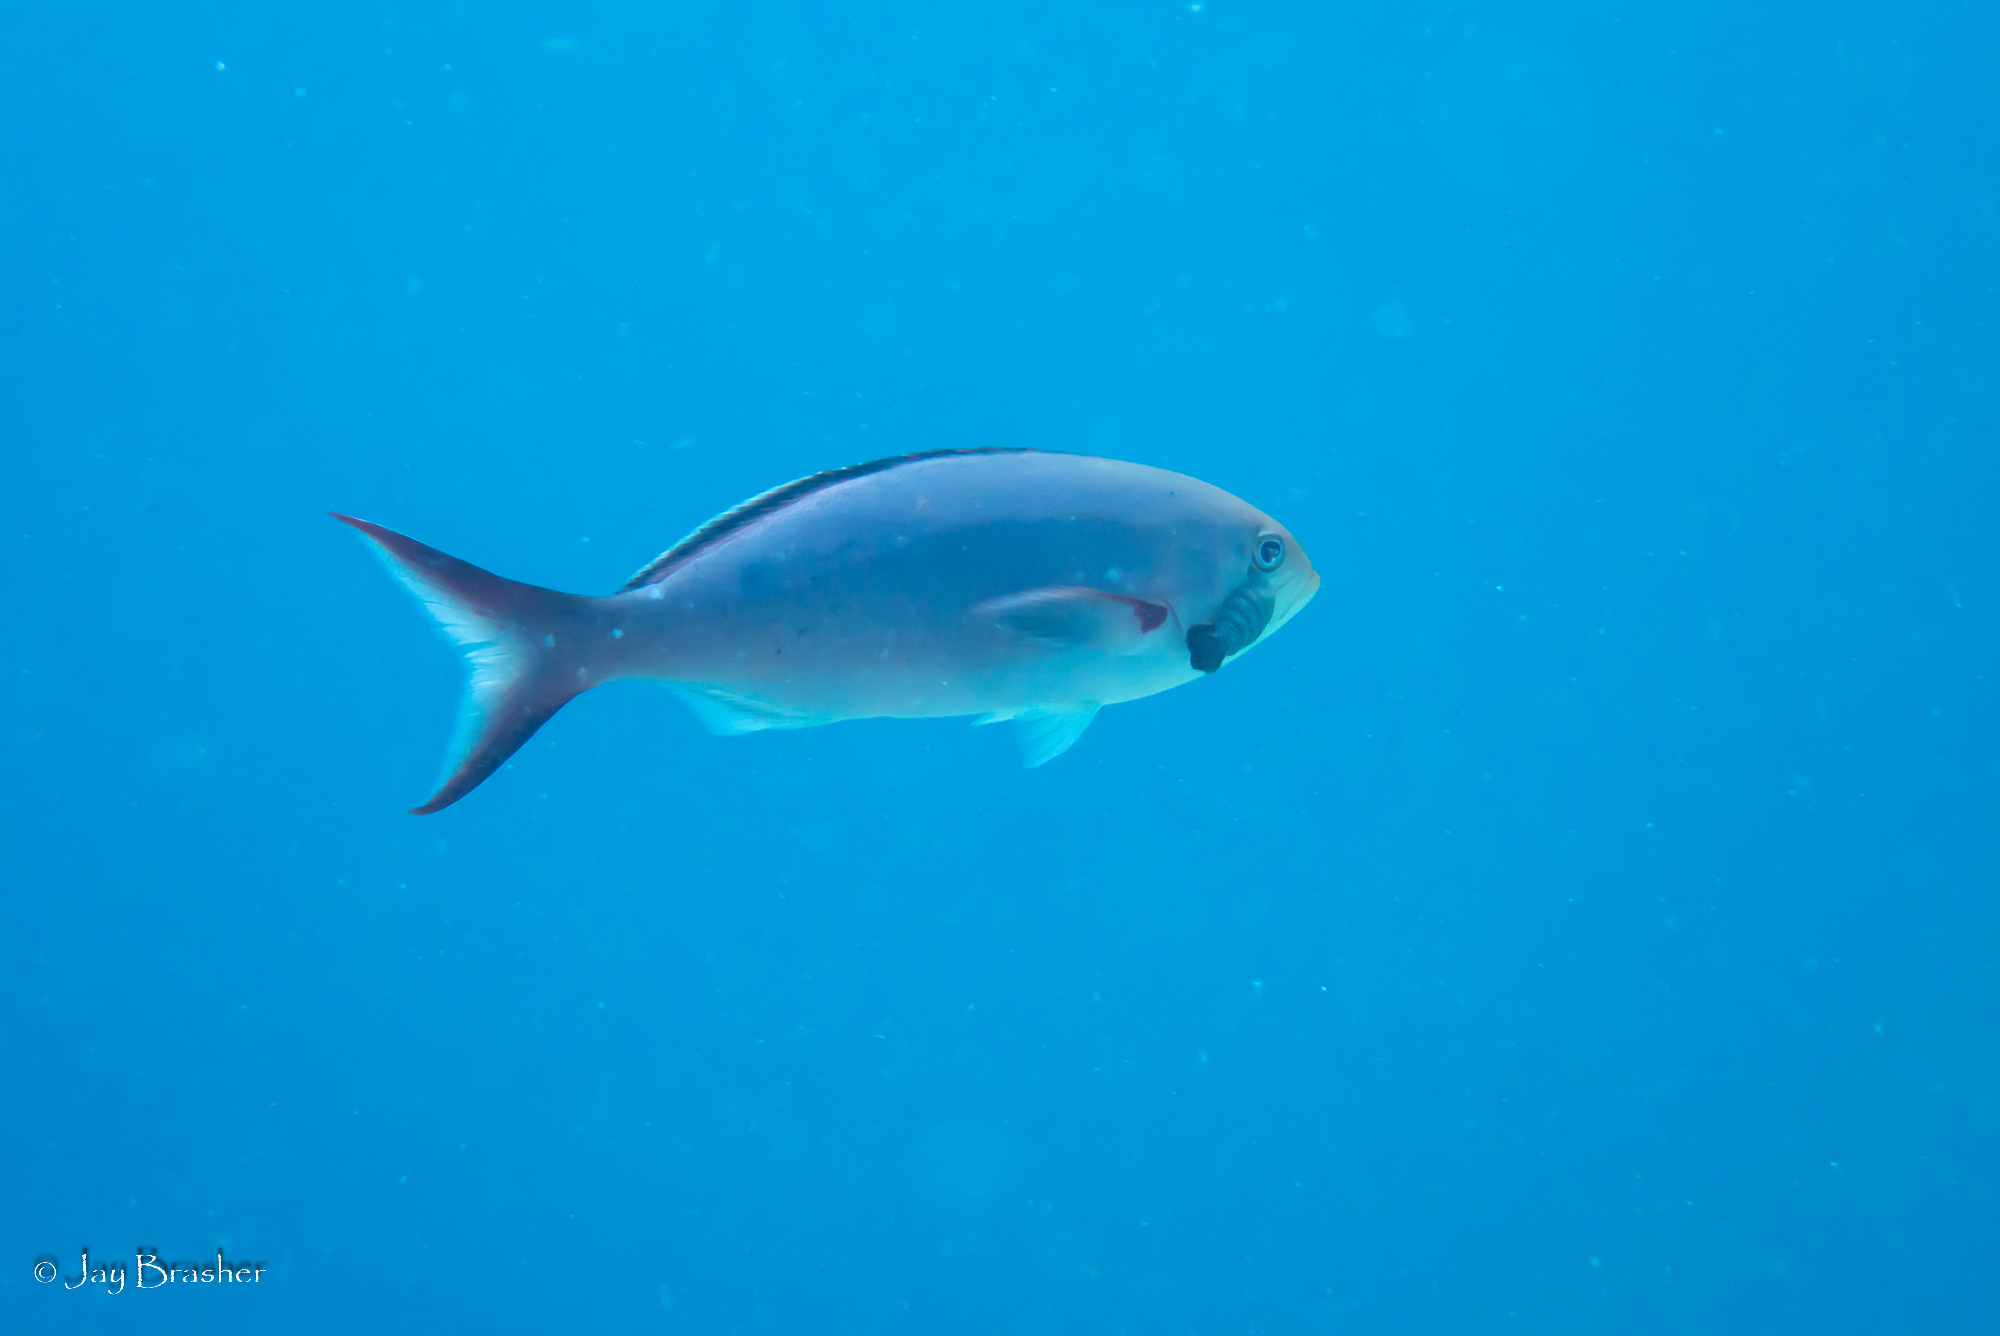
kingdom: Animalia
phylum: Chordata
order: Perciformes
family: Serranidae
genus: Paranthias
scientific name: Paranthias furcifer
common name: Creole-fish
